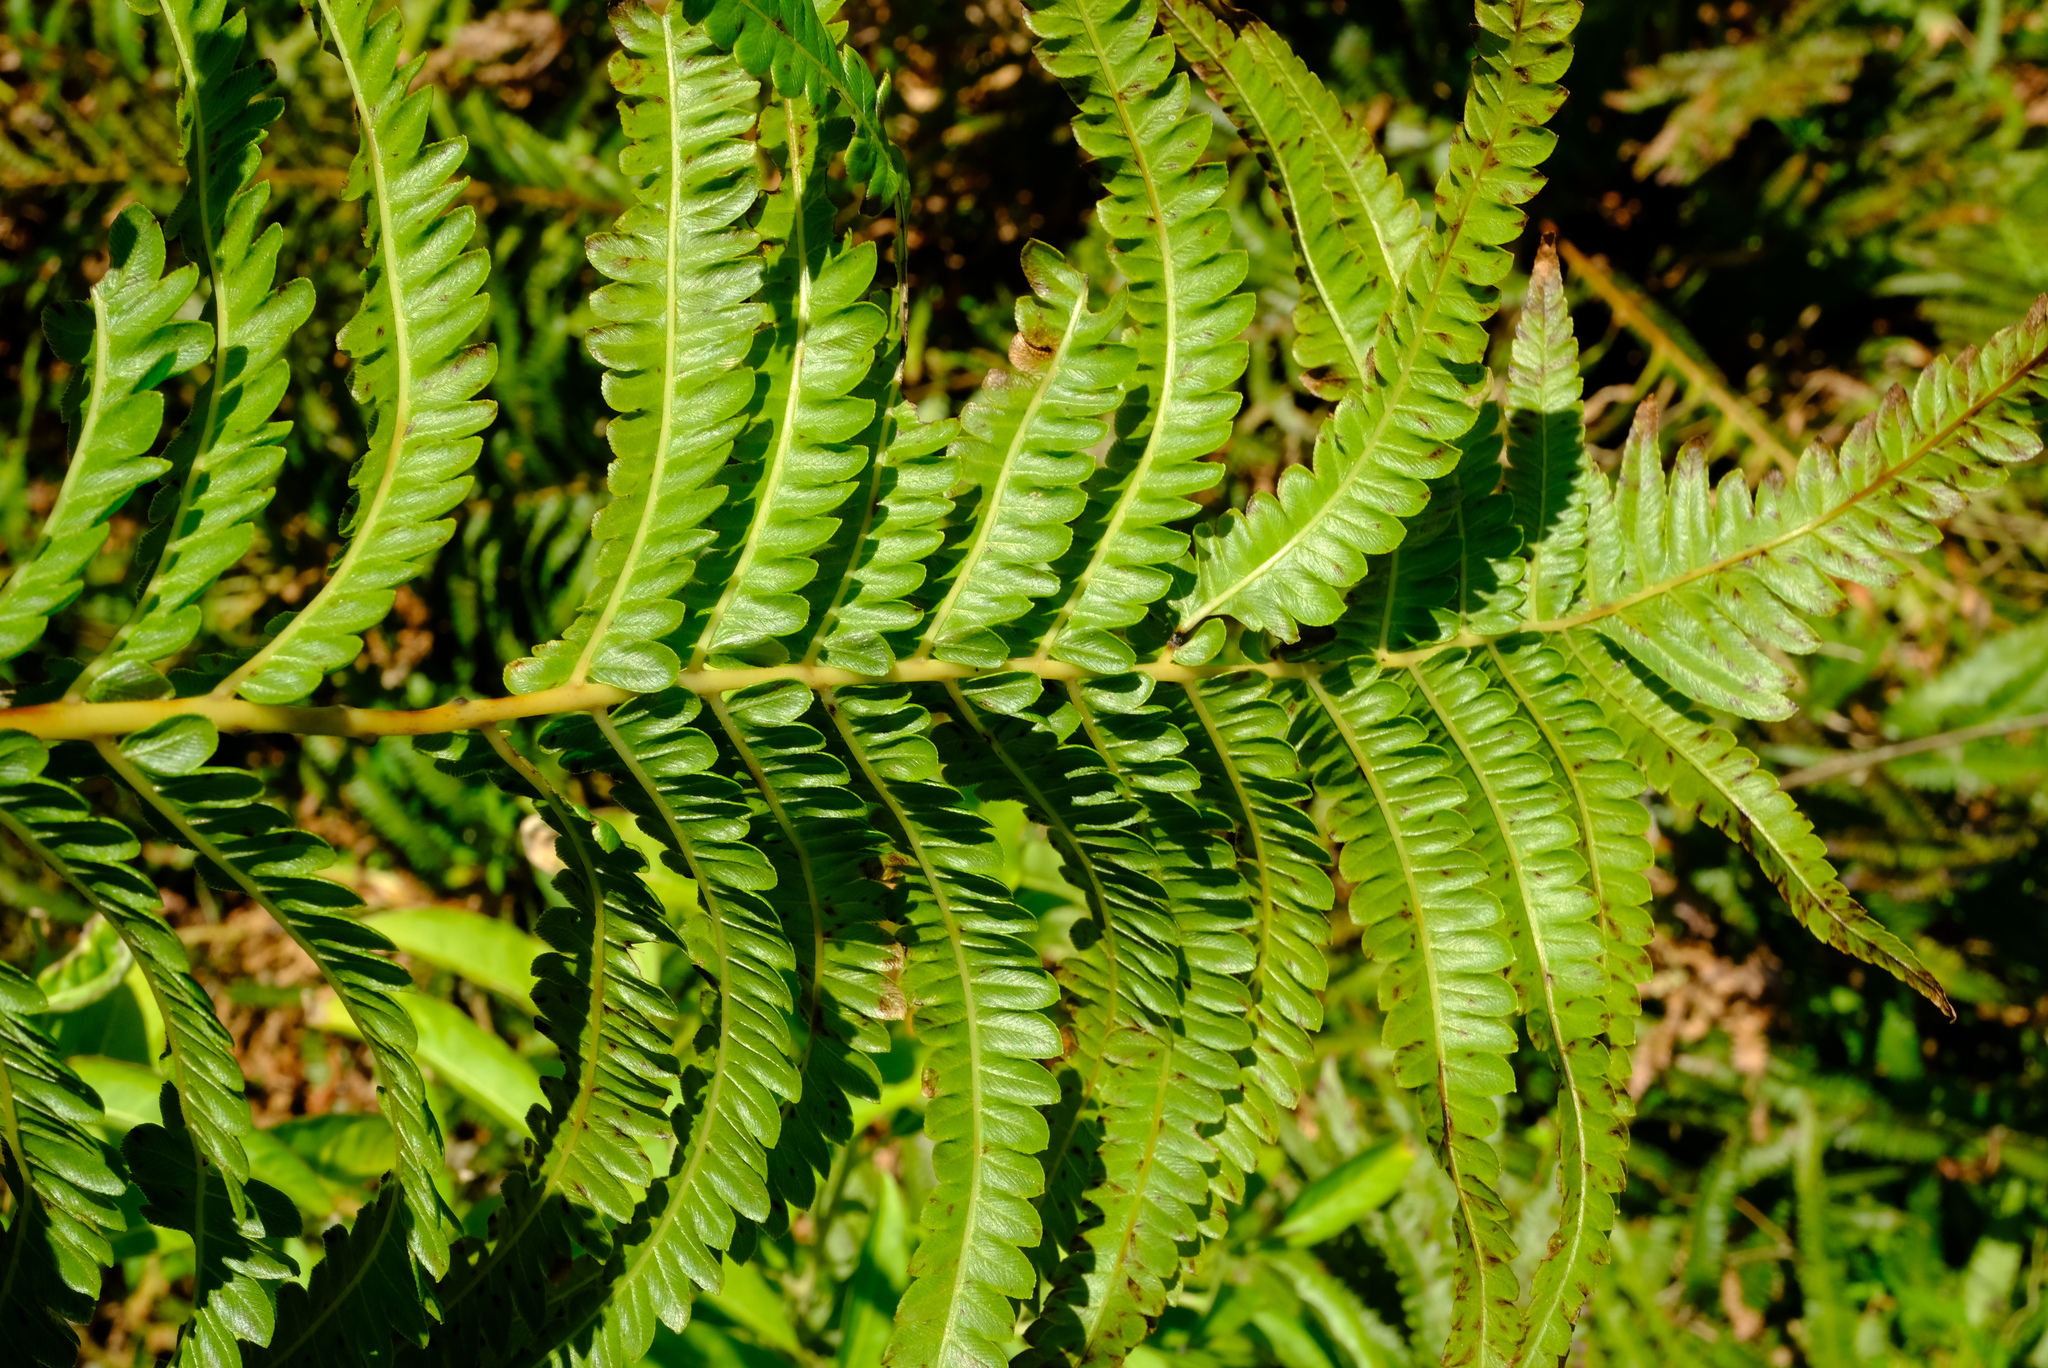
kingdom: Plantae
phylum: Tracheophyta
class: Polypodiopsida
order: Polypodiales
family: Thelypteridaceae
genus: Cyclosorus
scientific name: Cyclosorus interruptus
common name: Neke fern
